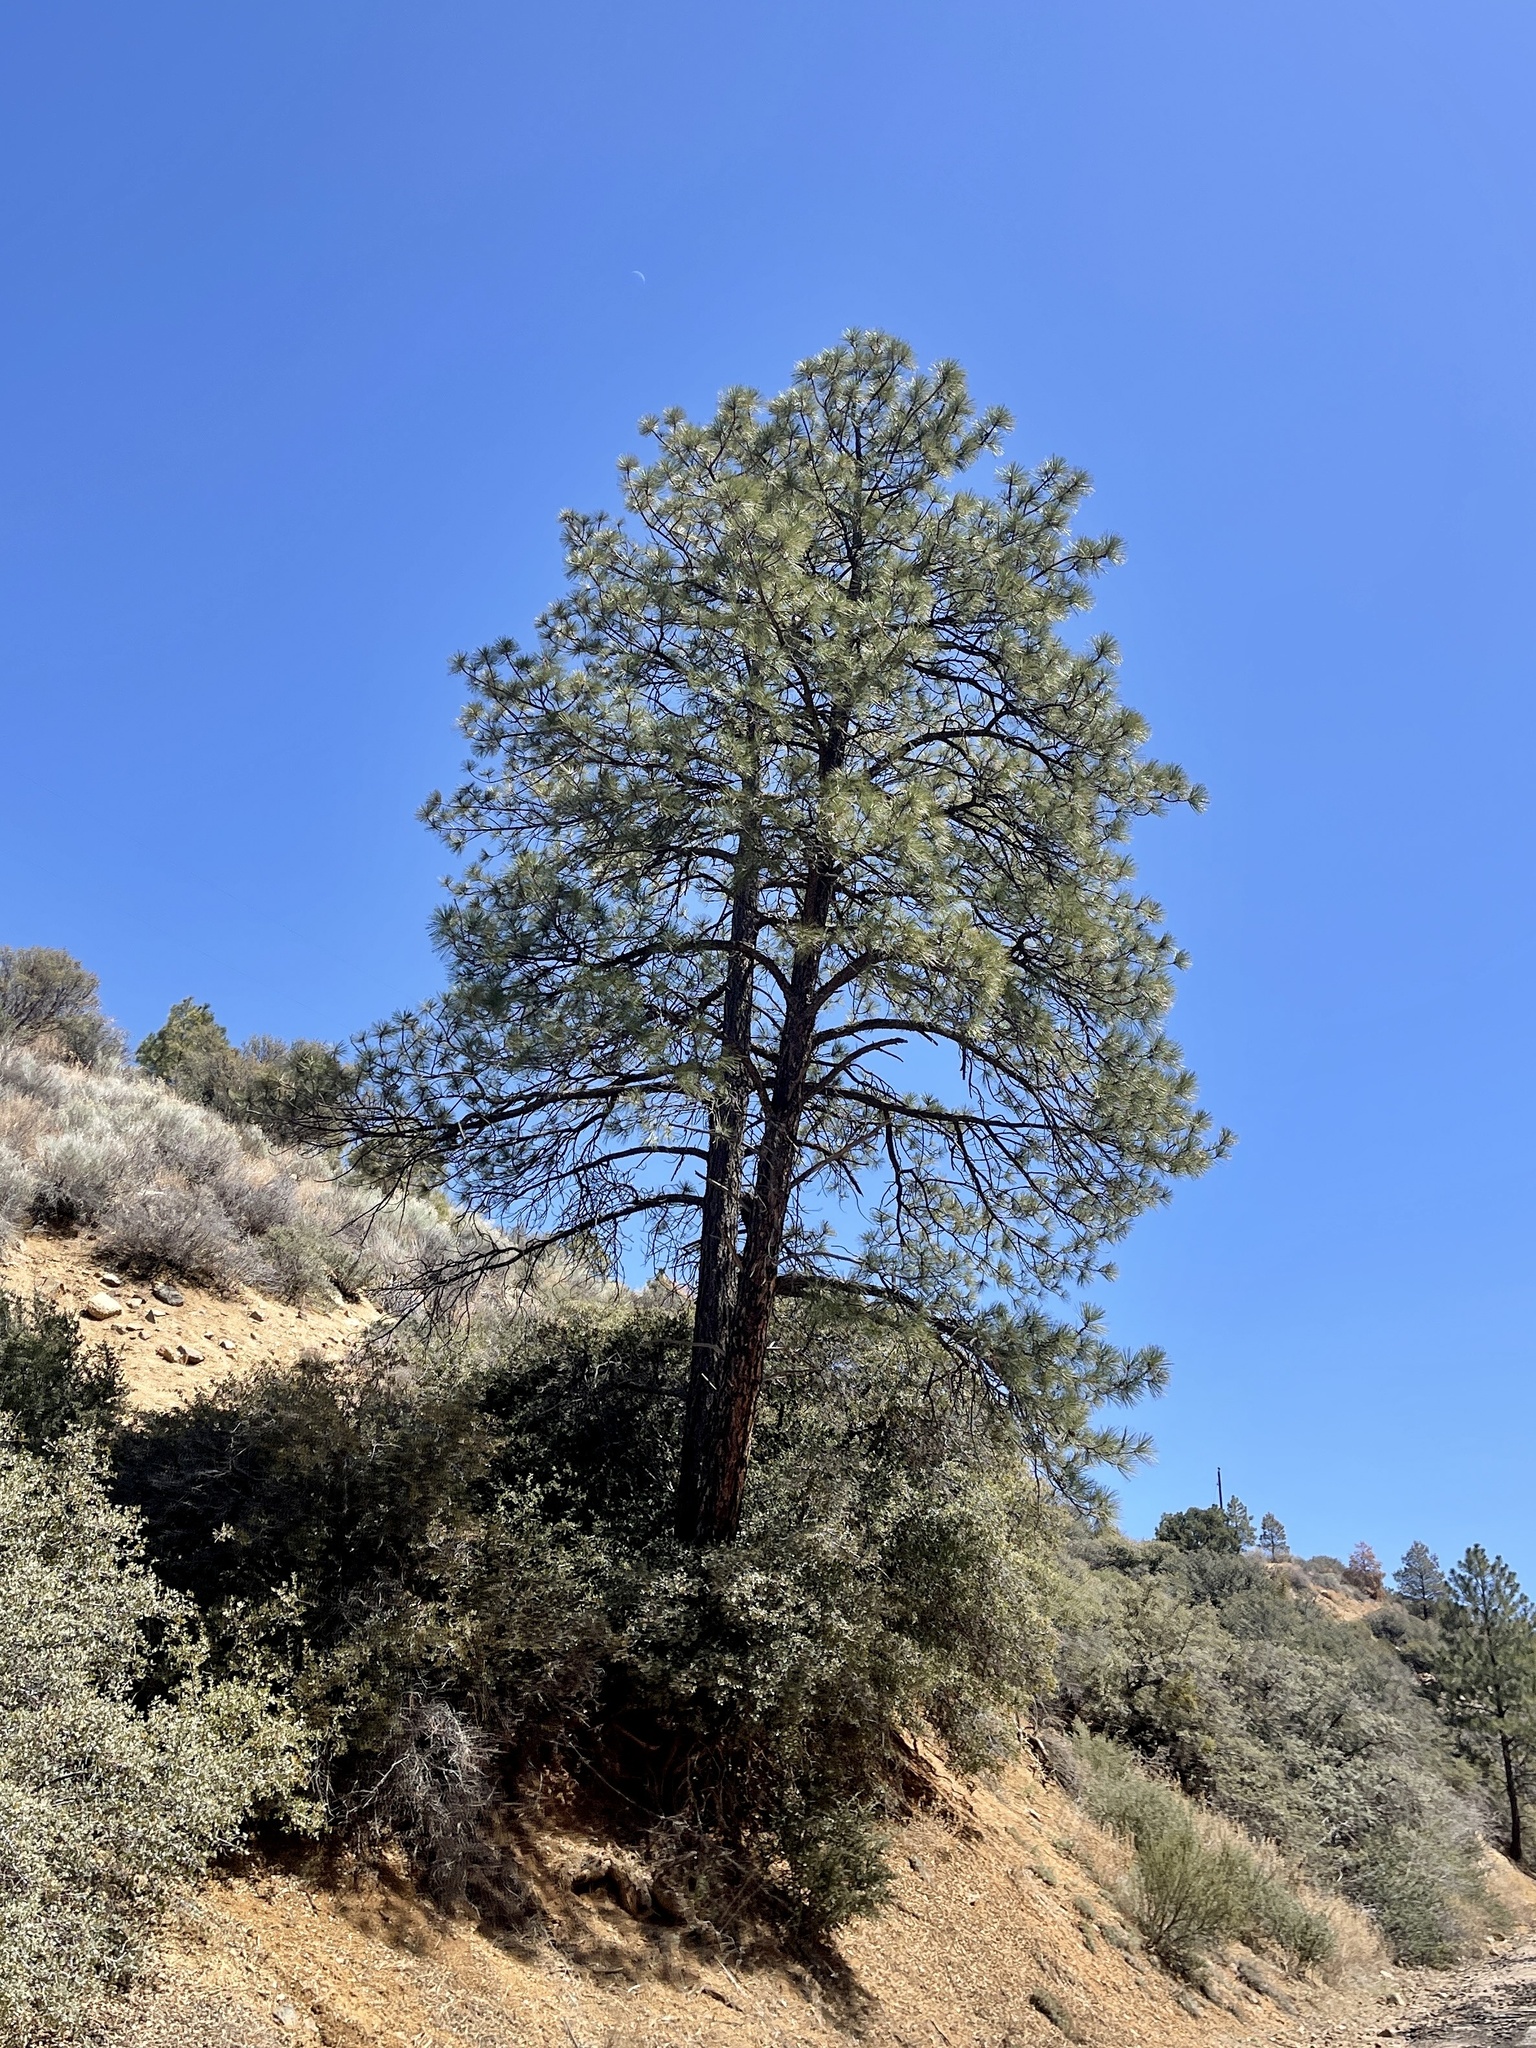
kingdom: Plantae
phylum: Tracheophyta
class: Pinopsida
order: Pinales
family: Pinaceae
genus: Pinus
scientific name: Pinus ponderosa
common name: Western yellow-pine
